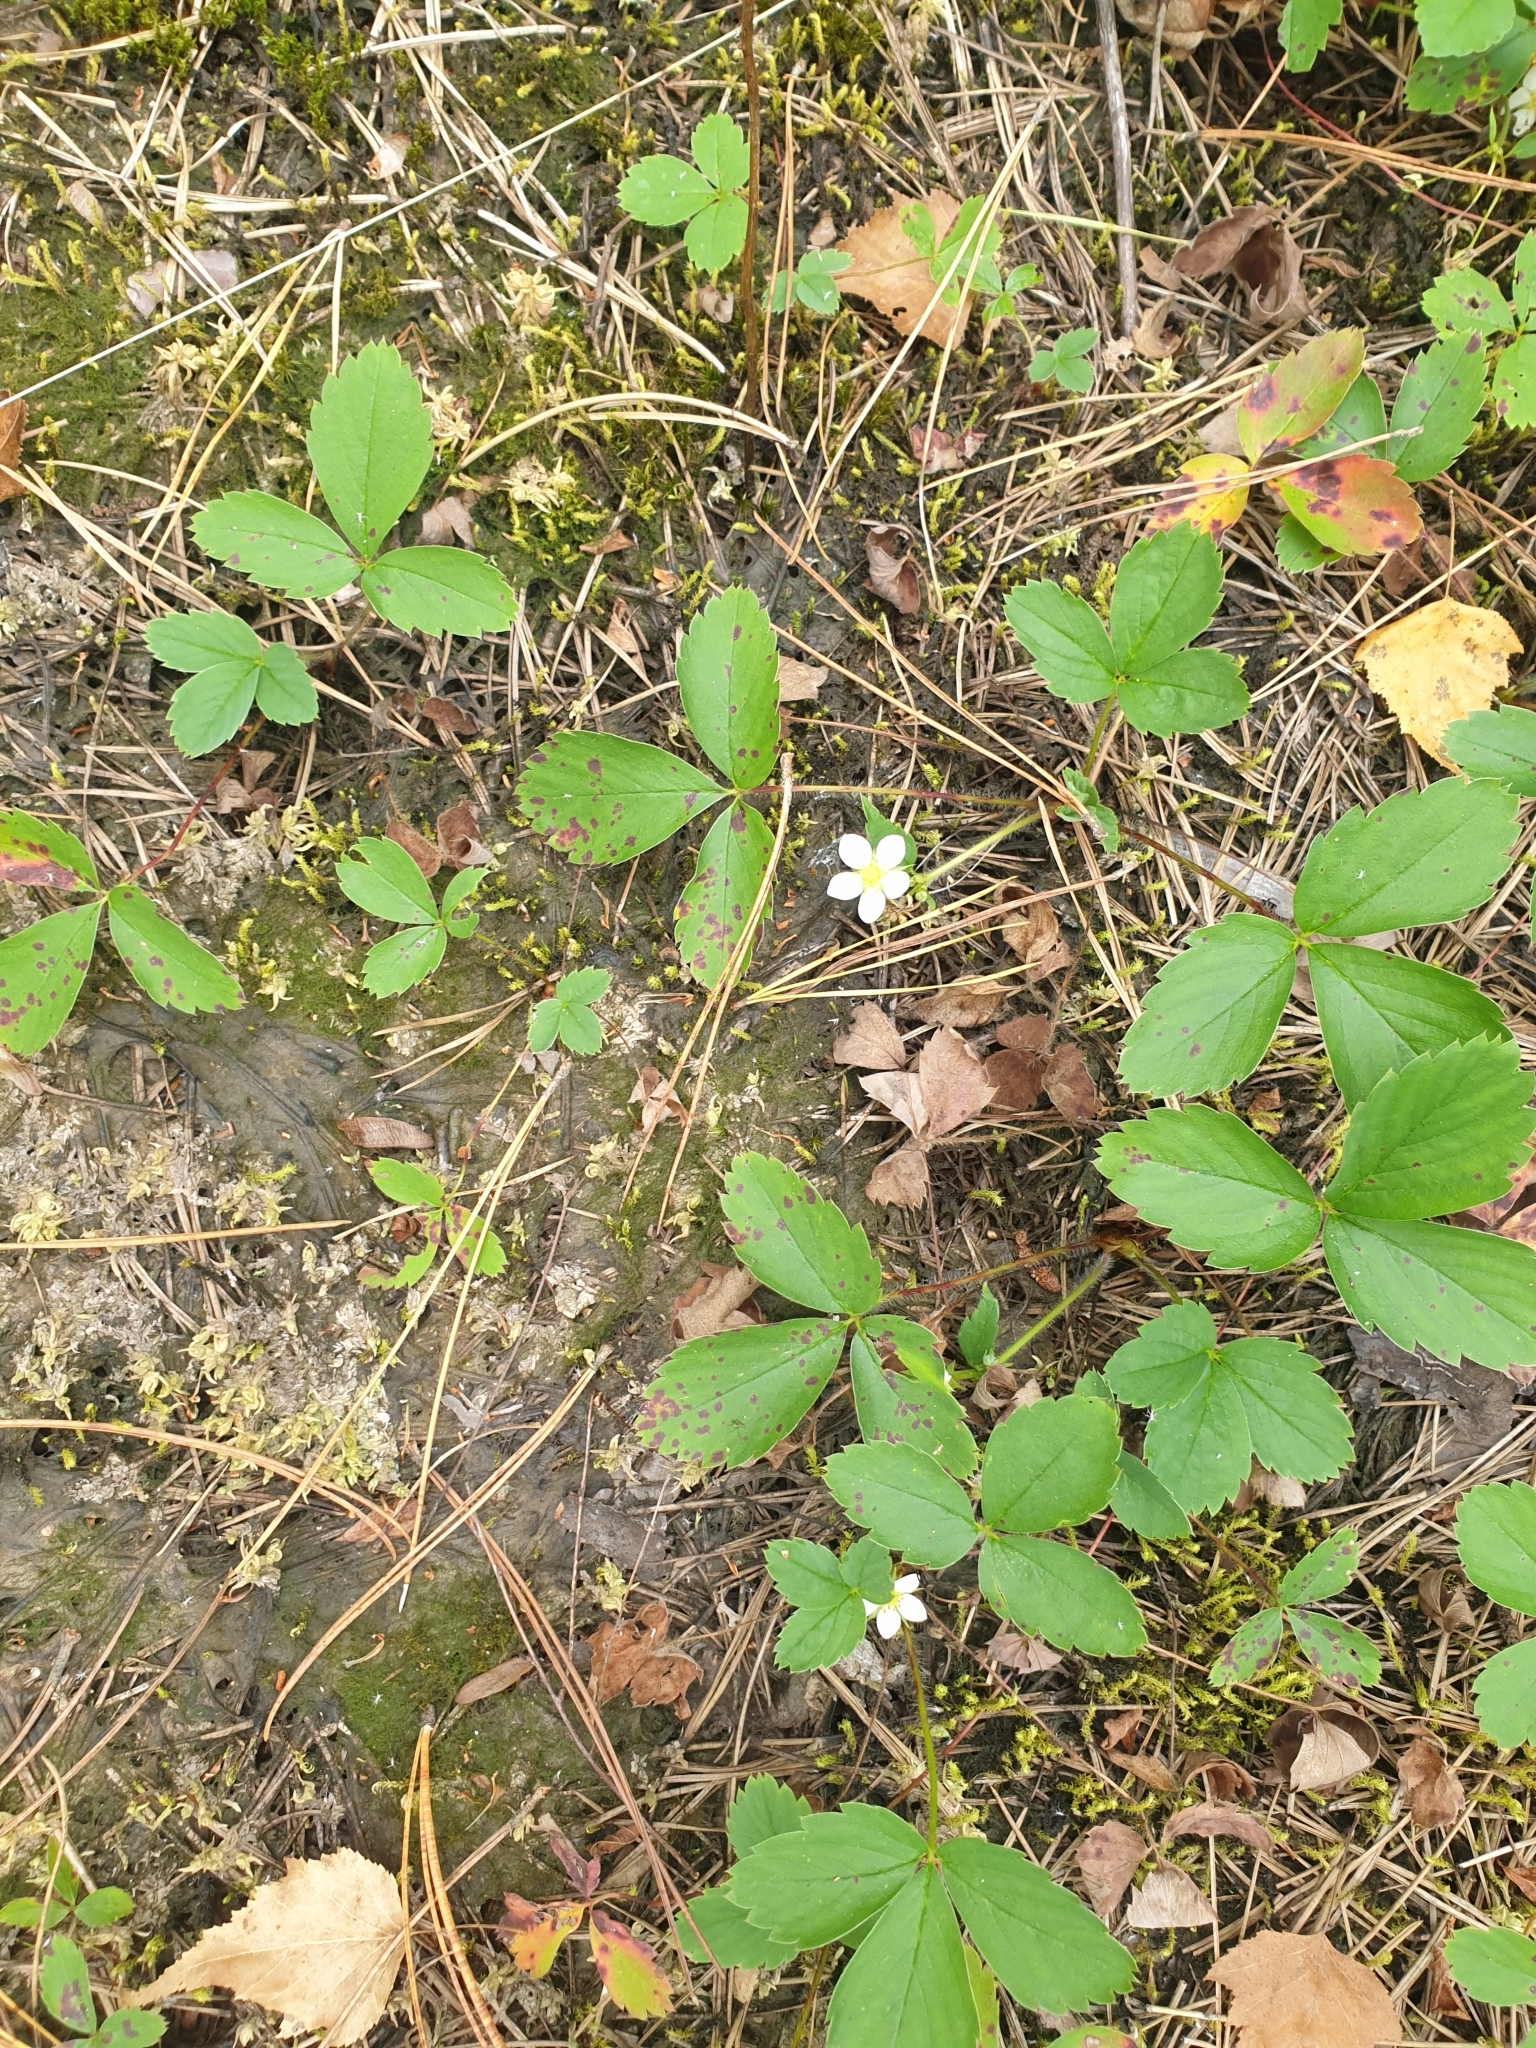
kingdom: Plantae
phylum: Tracheophyta
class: Magnoliopsida
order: Rosales
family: Rosaceae
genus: Fragaria
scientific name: Fragaria virginiana
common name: Thickleaved wild strawberry
